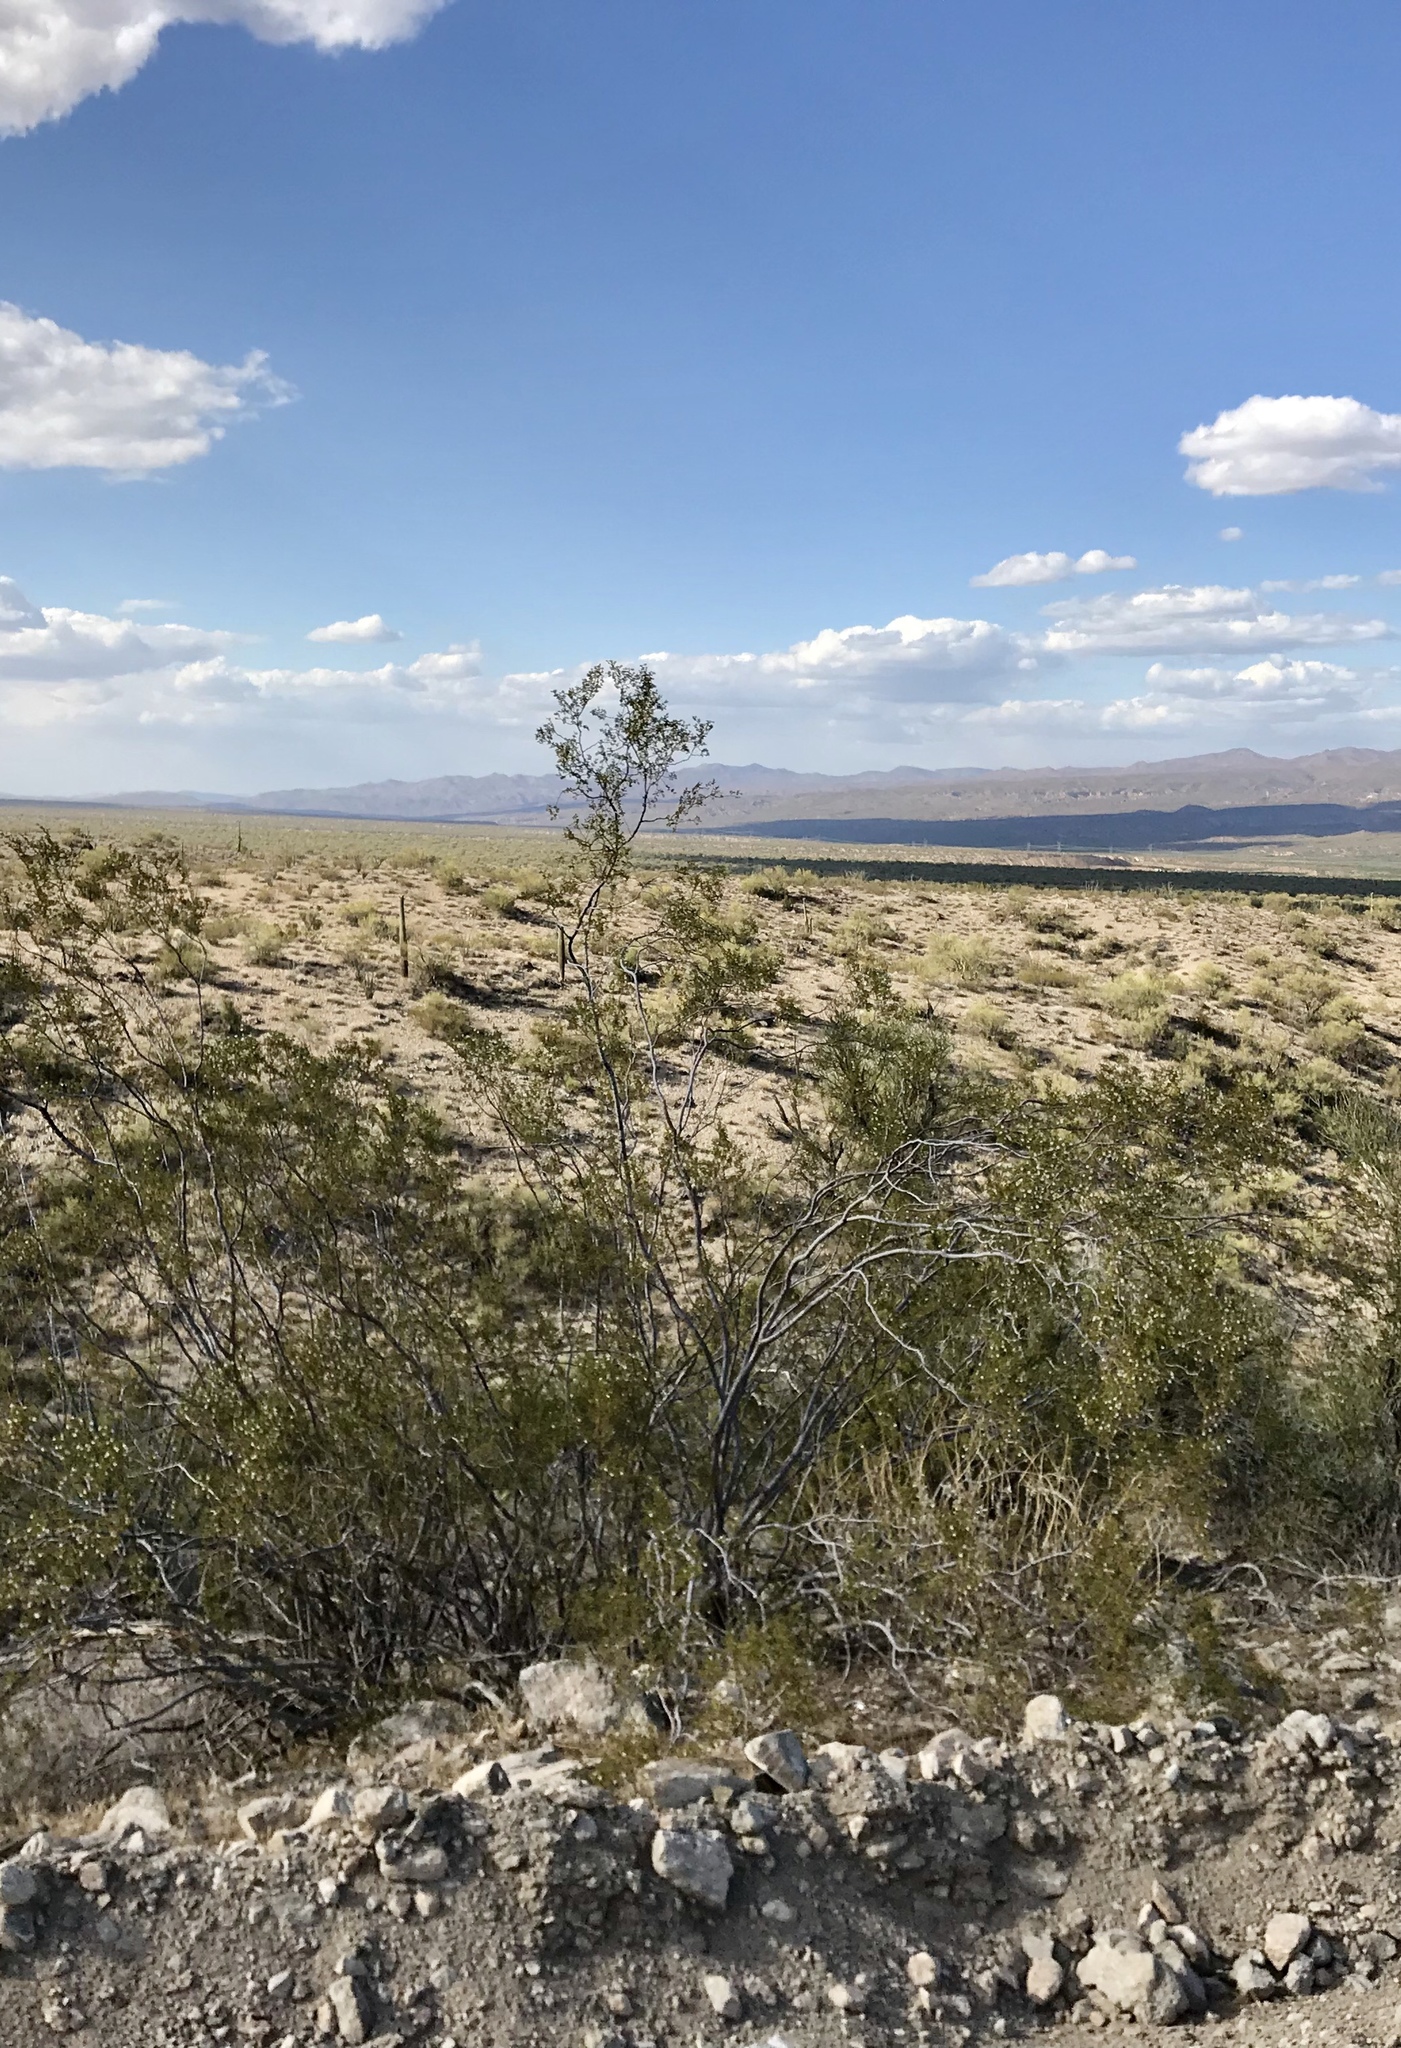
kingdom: Plantae
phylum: Tracheophyta
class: Magnoliopsida
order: Zygophyllales
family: Zygophyllaceae
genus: Larrea
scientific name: Larrea tridentata
